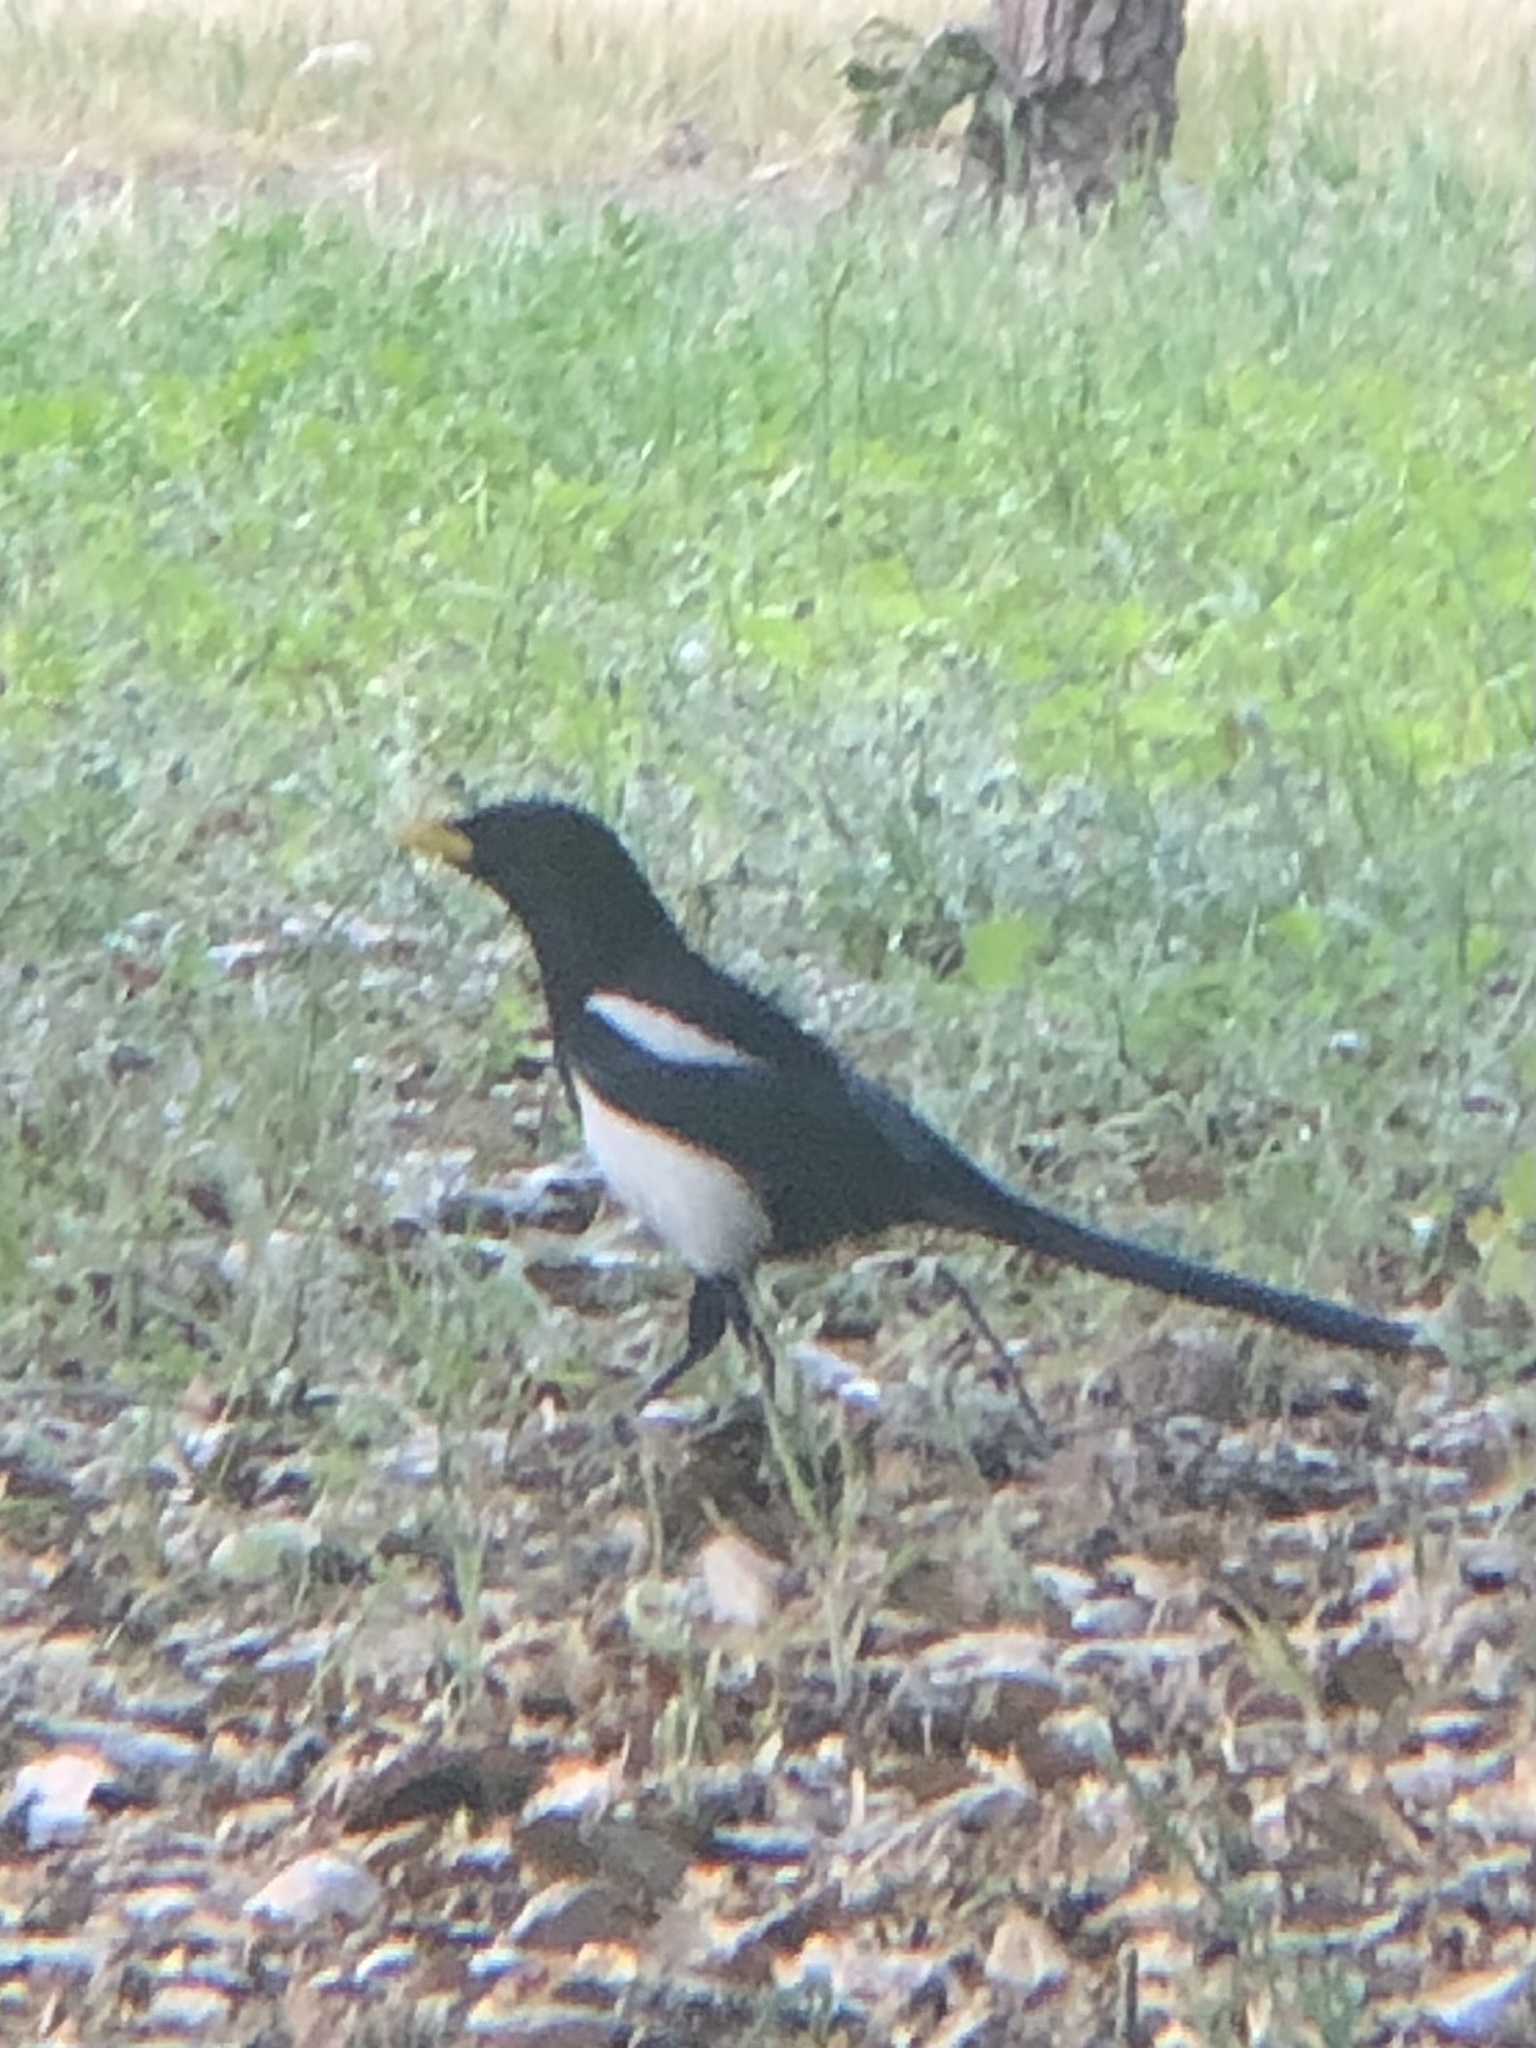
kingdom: Animalia
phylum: Chordata
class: Aves
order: Passeriformes
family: Corvidae
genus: Pica
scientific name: Pica nuttalli
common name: Yellow-billed magpie
